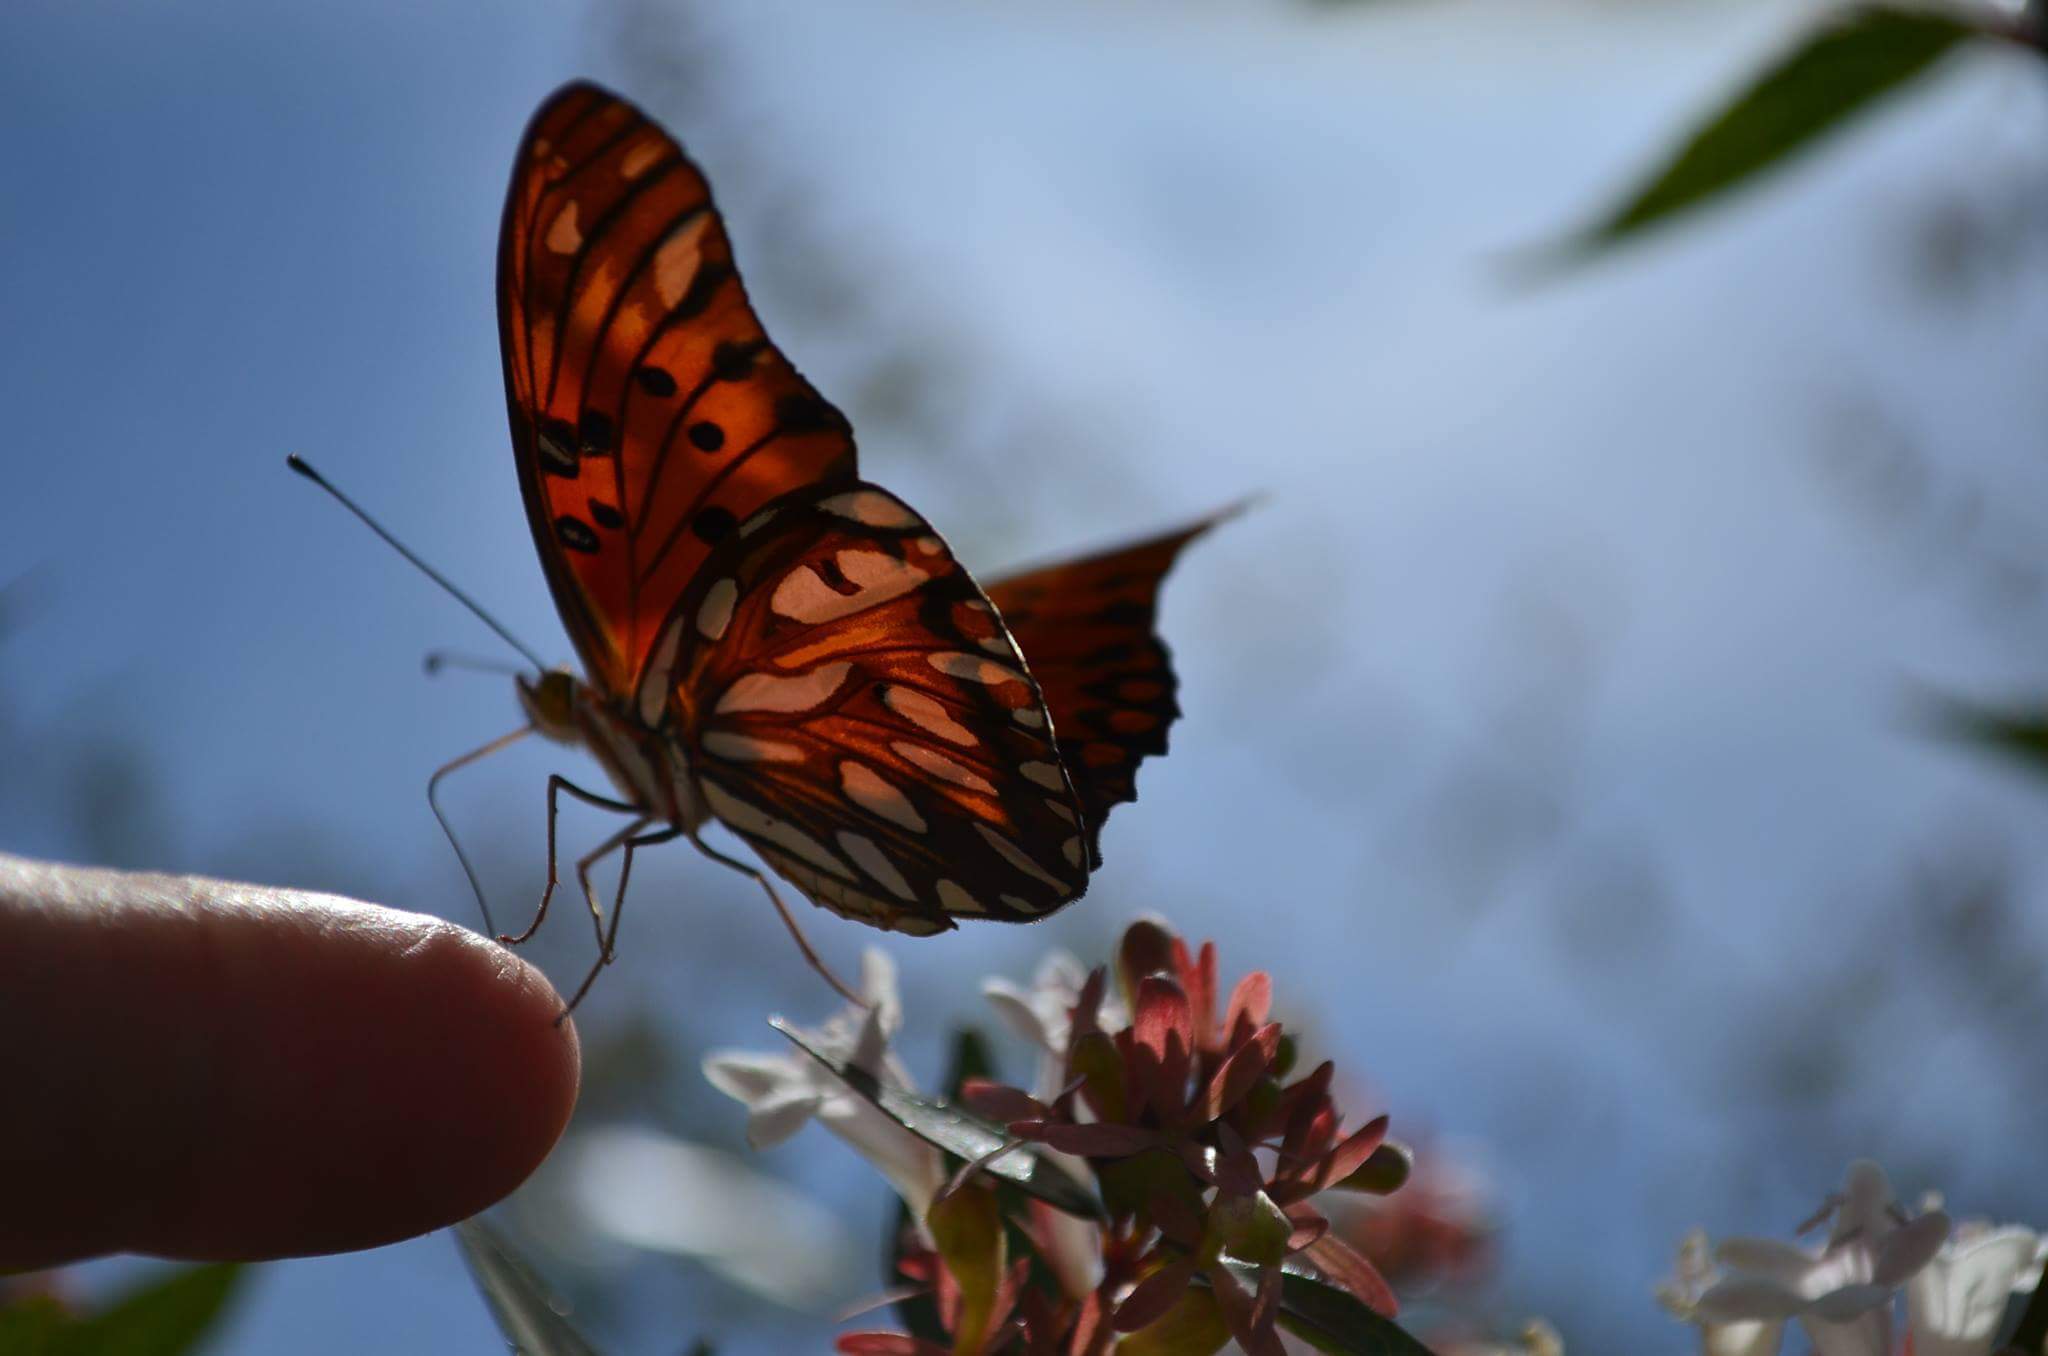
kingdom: Animalia
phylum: Arthropoda
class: Insecta
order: Lepidoptera
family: Nymphalidae
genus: Dione
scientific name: Dione vanillae
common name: Gulf fritillary
